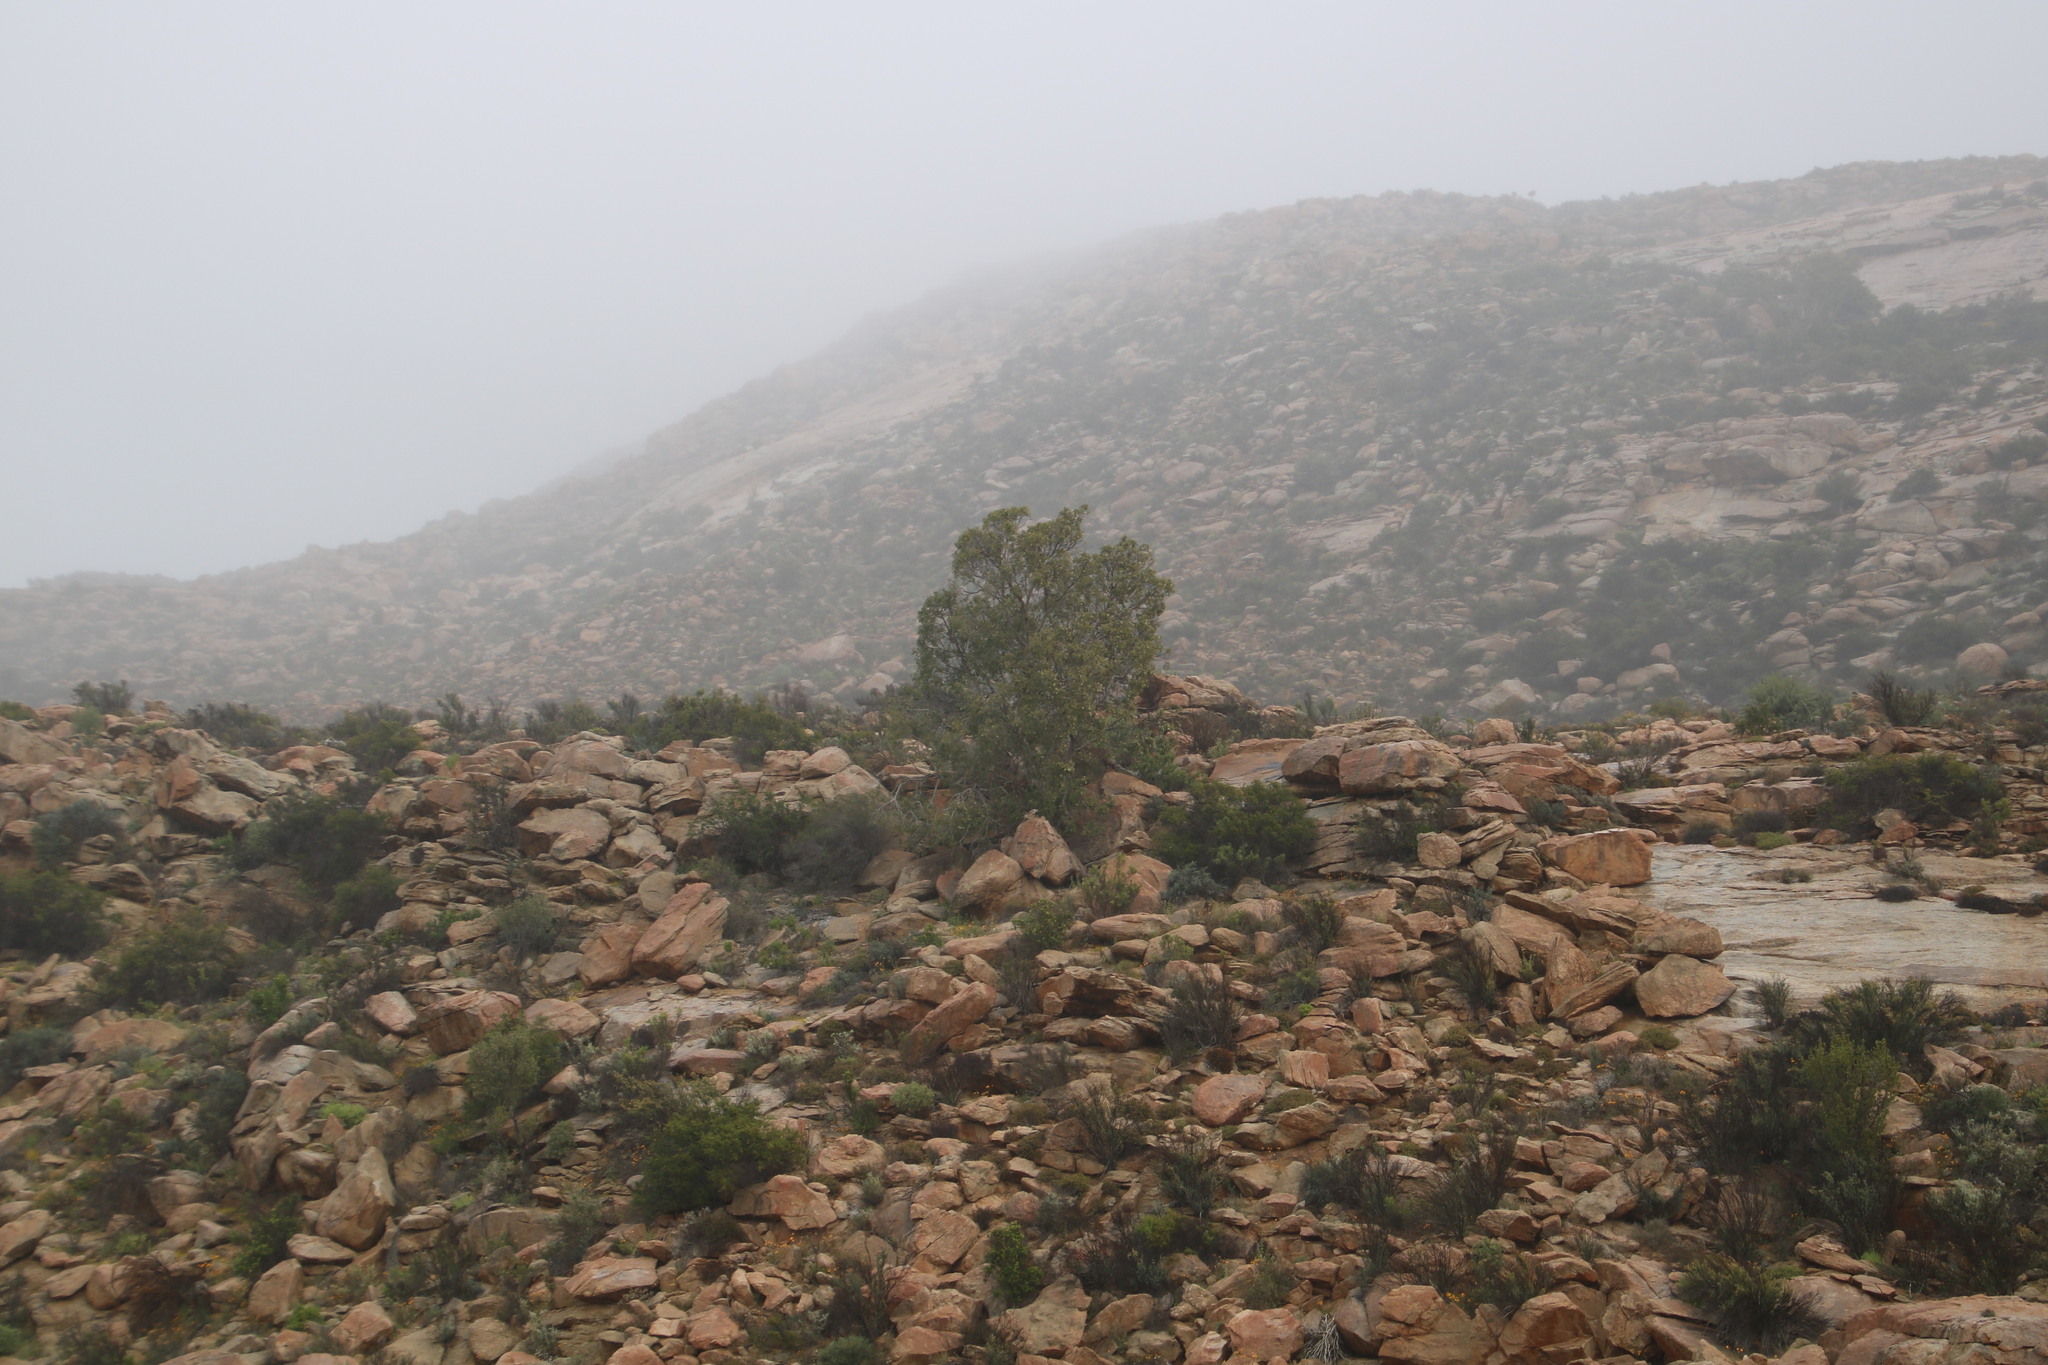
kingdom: Plantae
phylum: Tracheophyta
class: Magnoliopsida
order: Rosales
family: Moraceae
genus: Ficus
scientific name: Ficus cordata
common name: Namaqua rock fig
